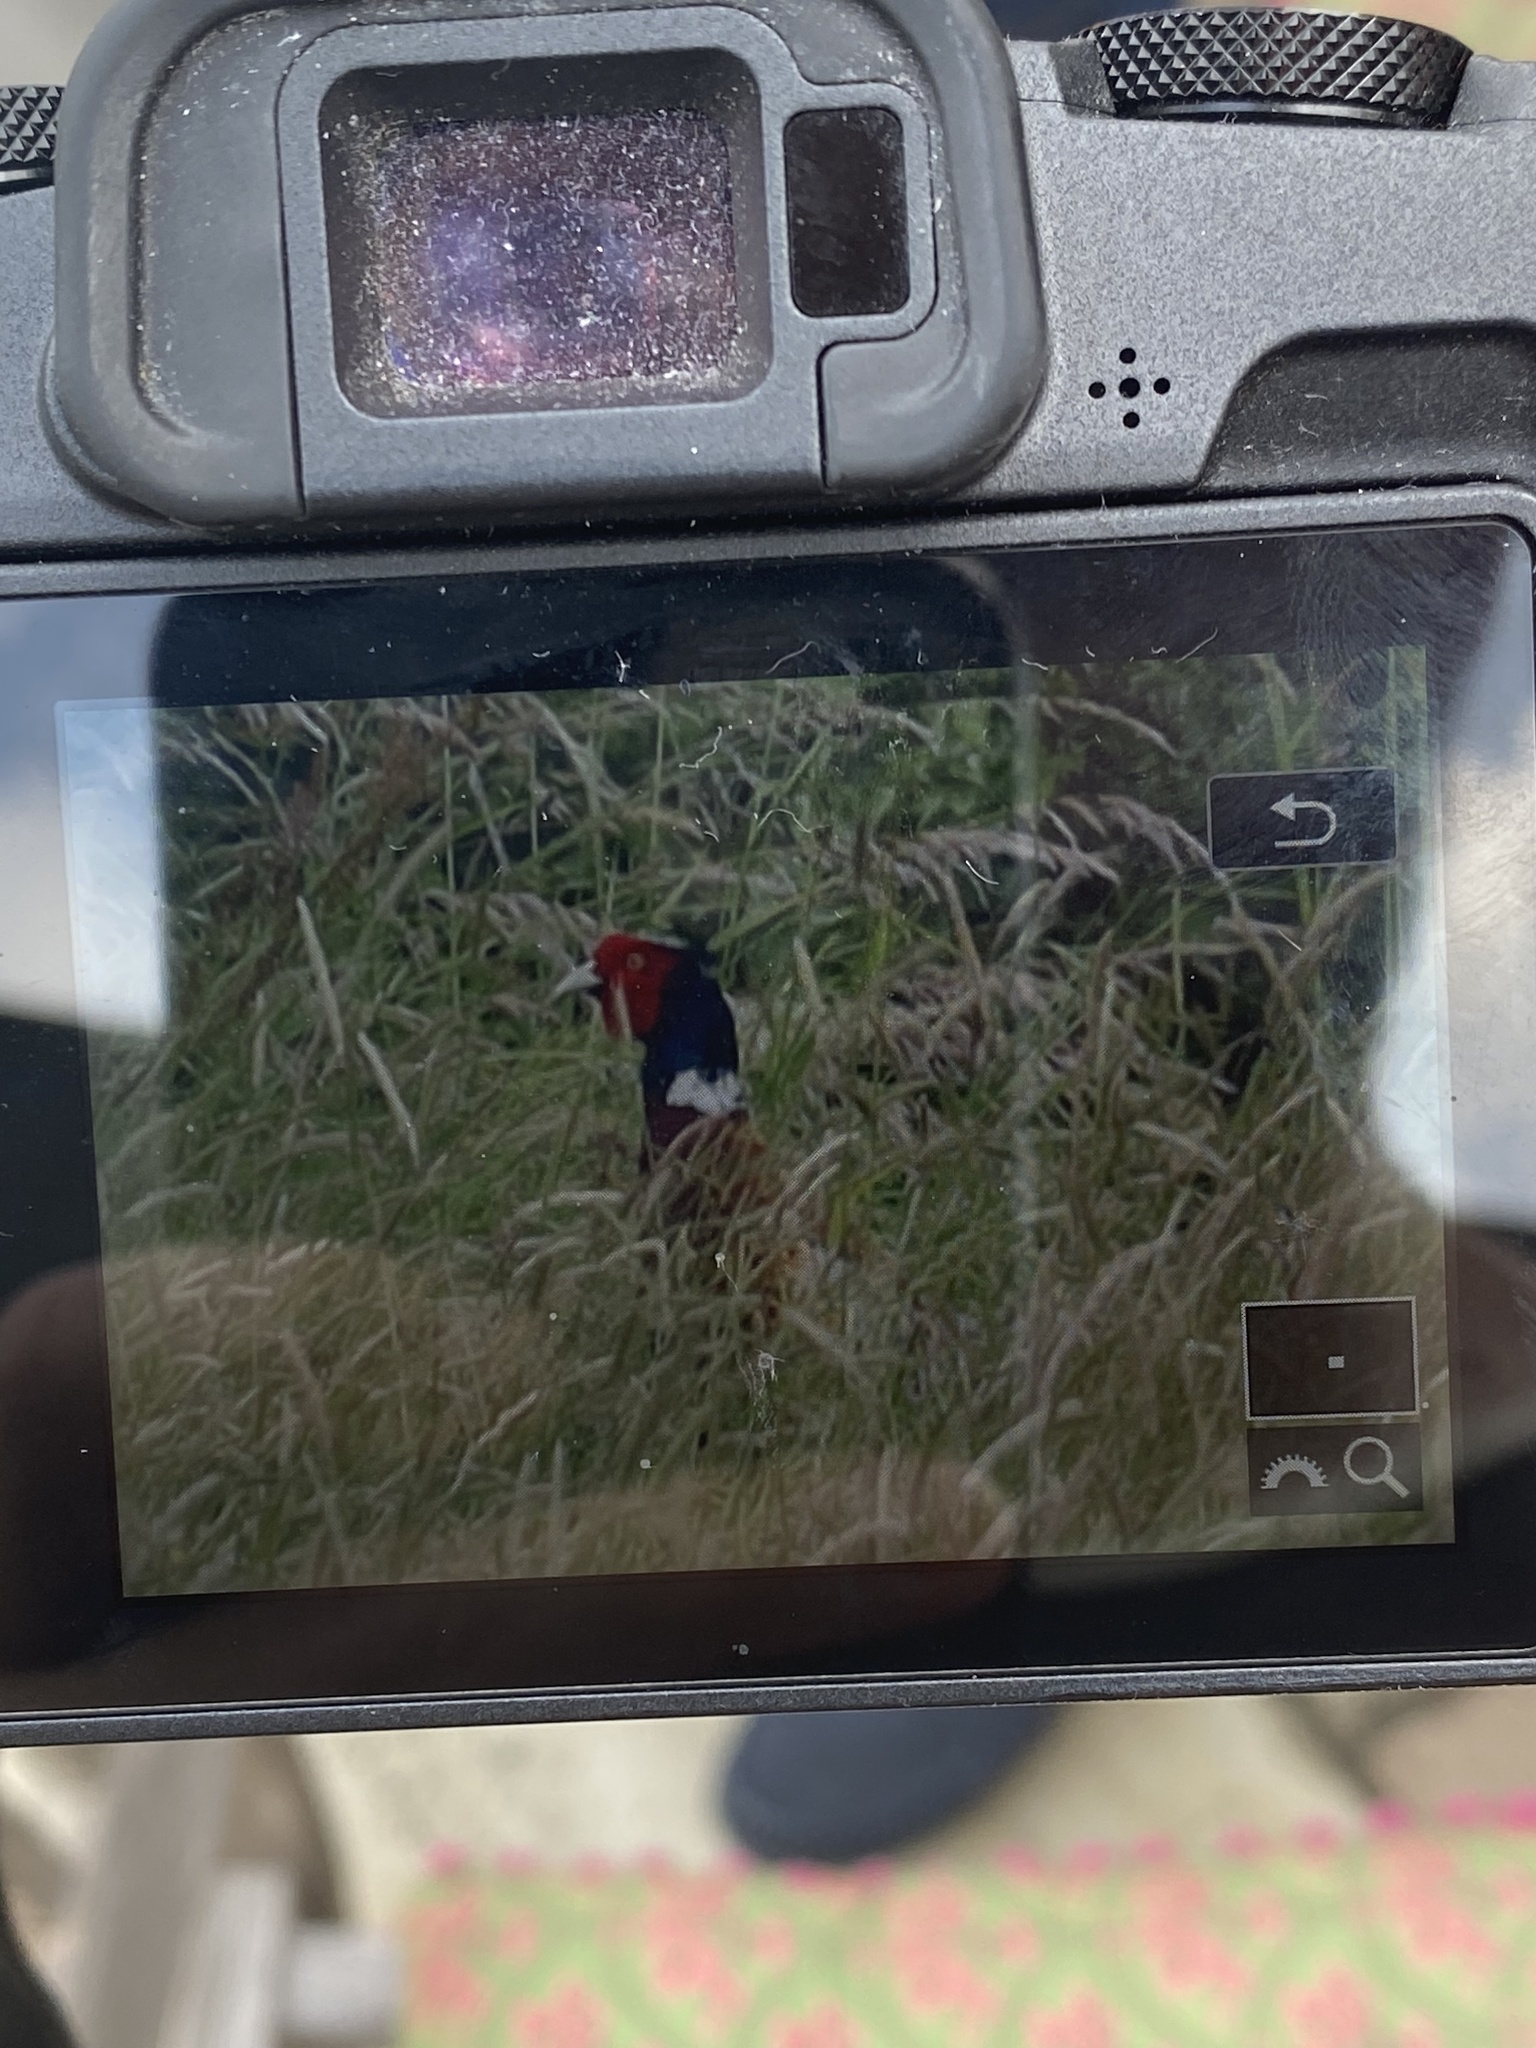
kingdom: Animalia
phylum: Chordata
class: Aves
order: Galliformes
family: Phasianidae
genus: Phasianus
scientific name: Phasianus colchicus
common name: Common pheasant
